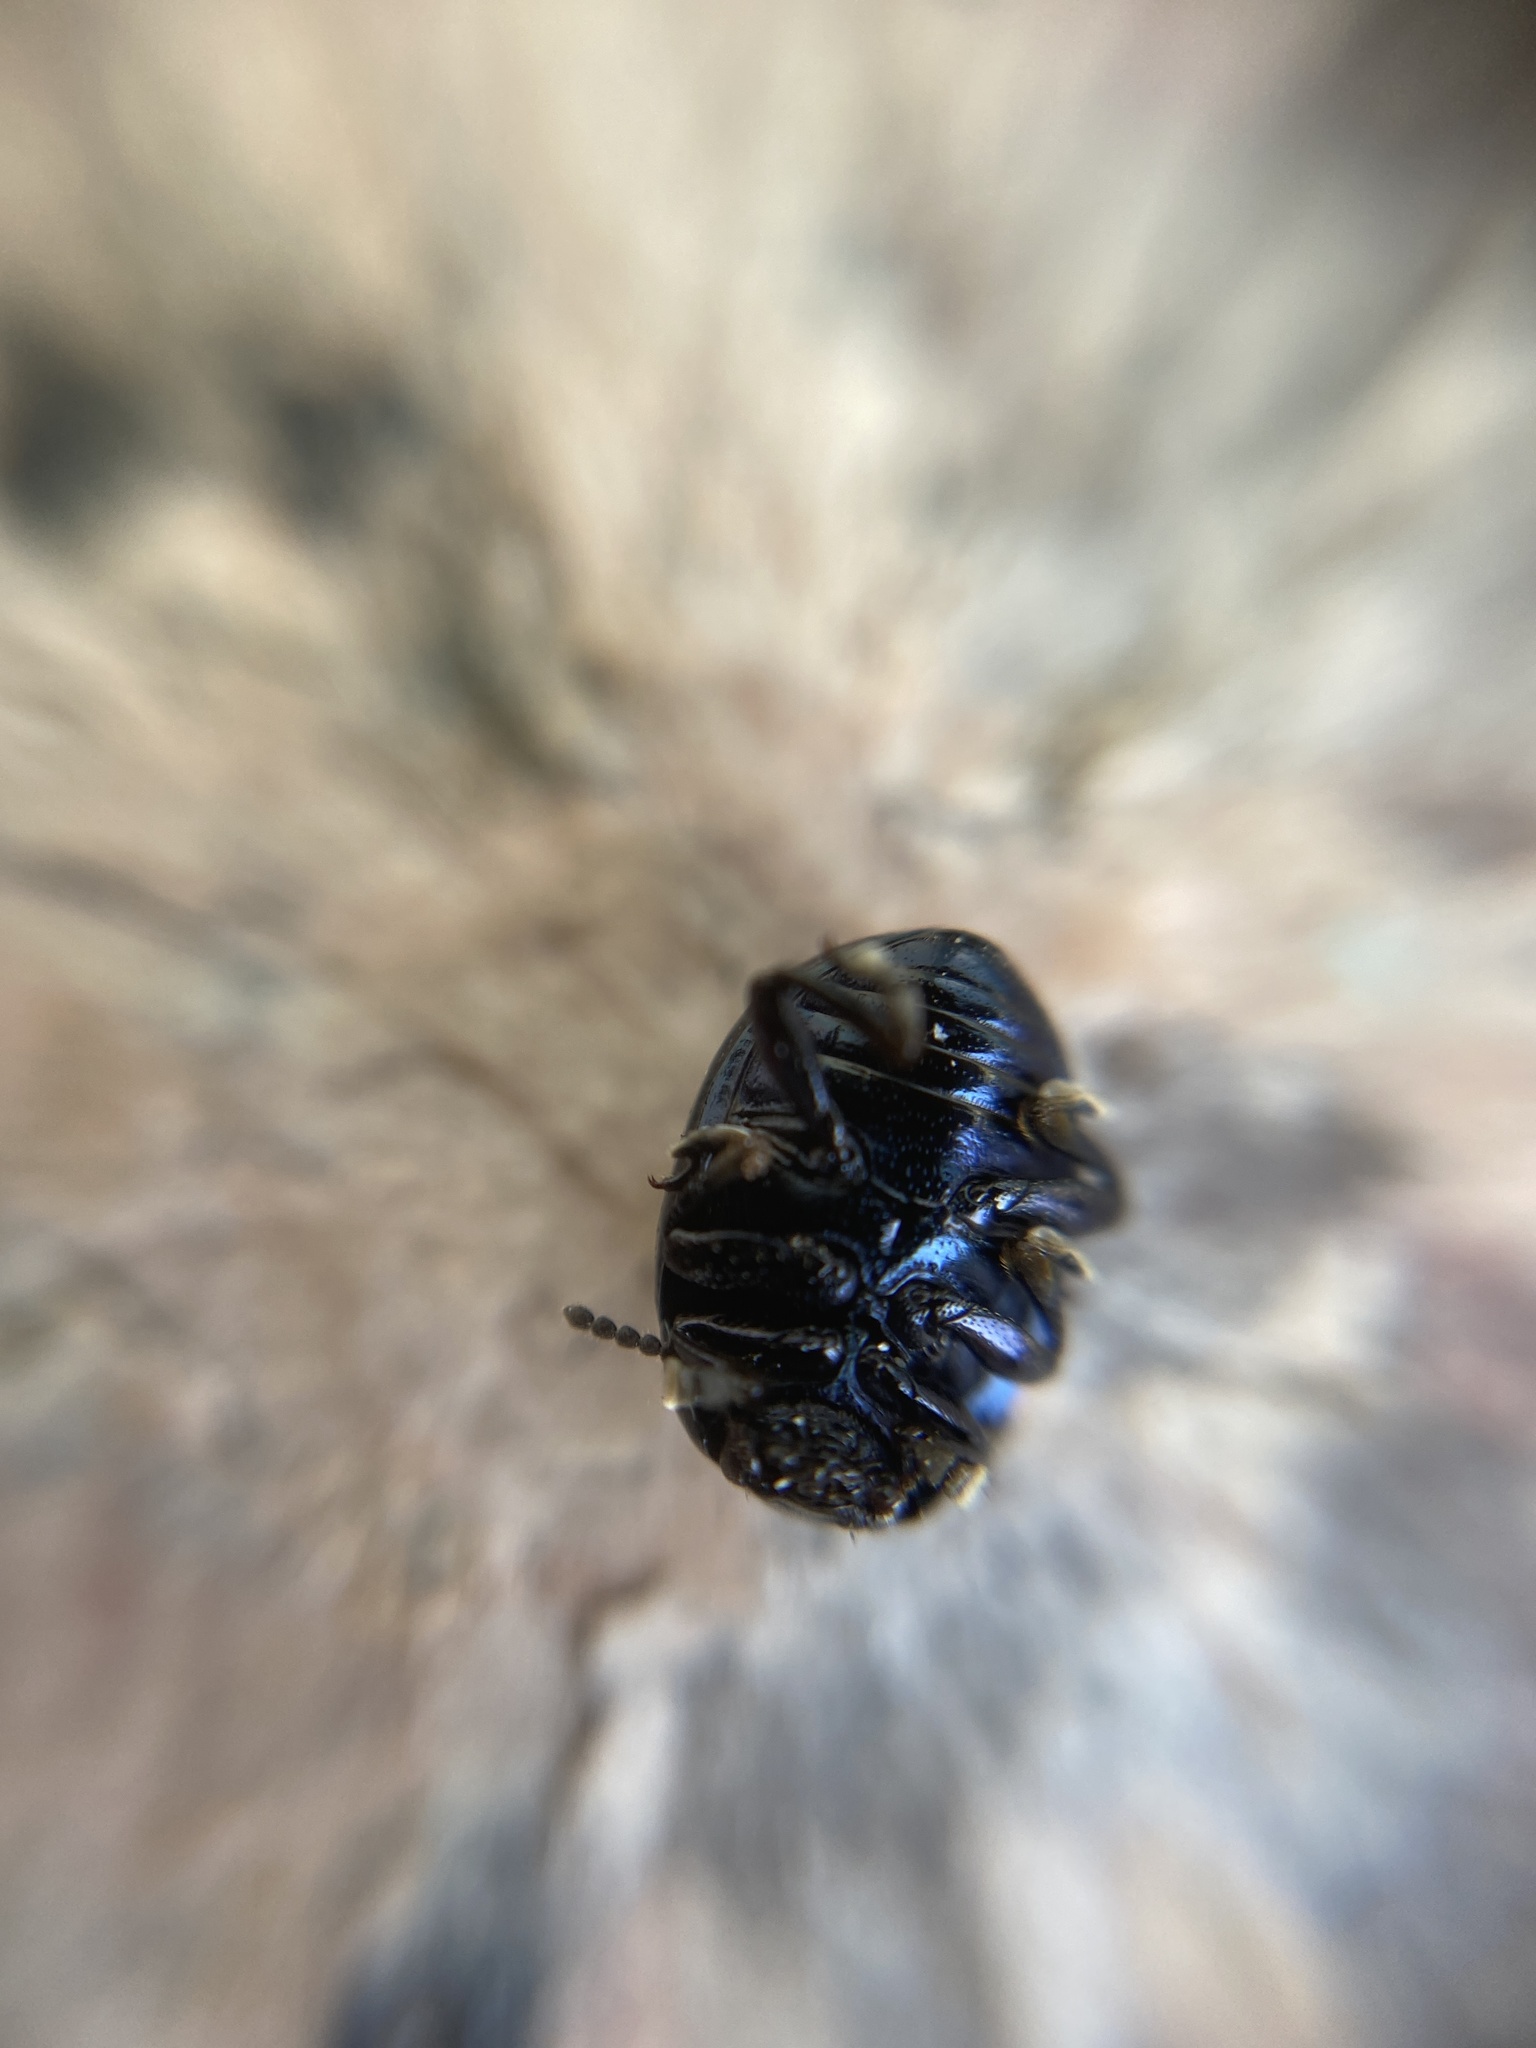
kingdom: Animalia
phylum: Arthropoda
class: Insecta
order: Coleoptera
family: Chrysomelidae
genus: Chrysolina
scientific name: Chrysolina haemoptera
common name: Plantain leaf beetle
